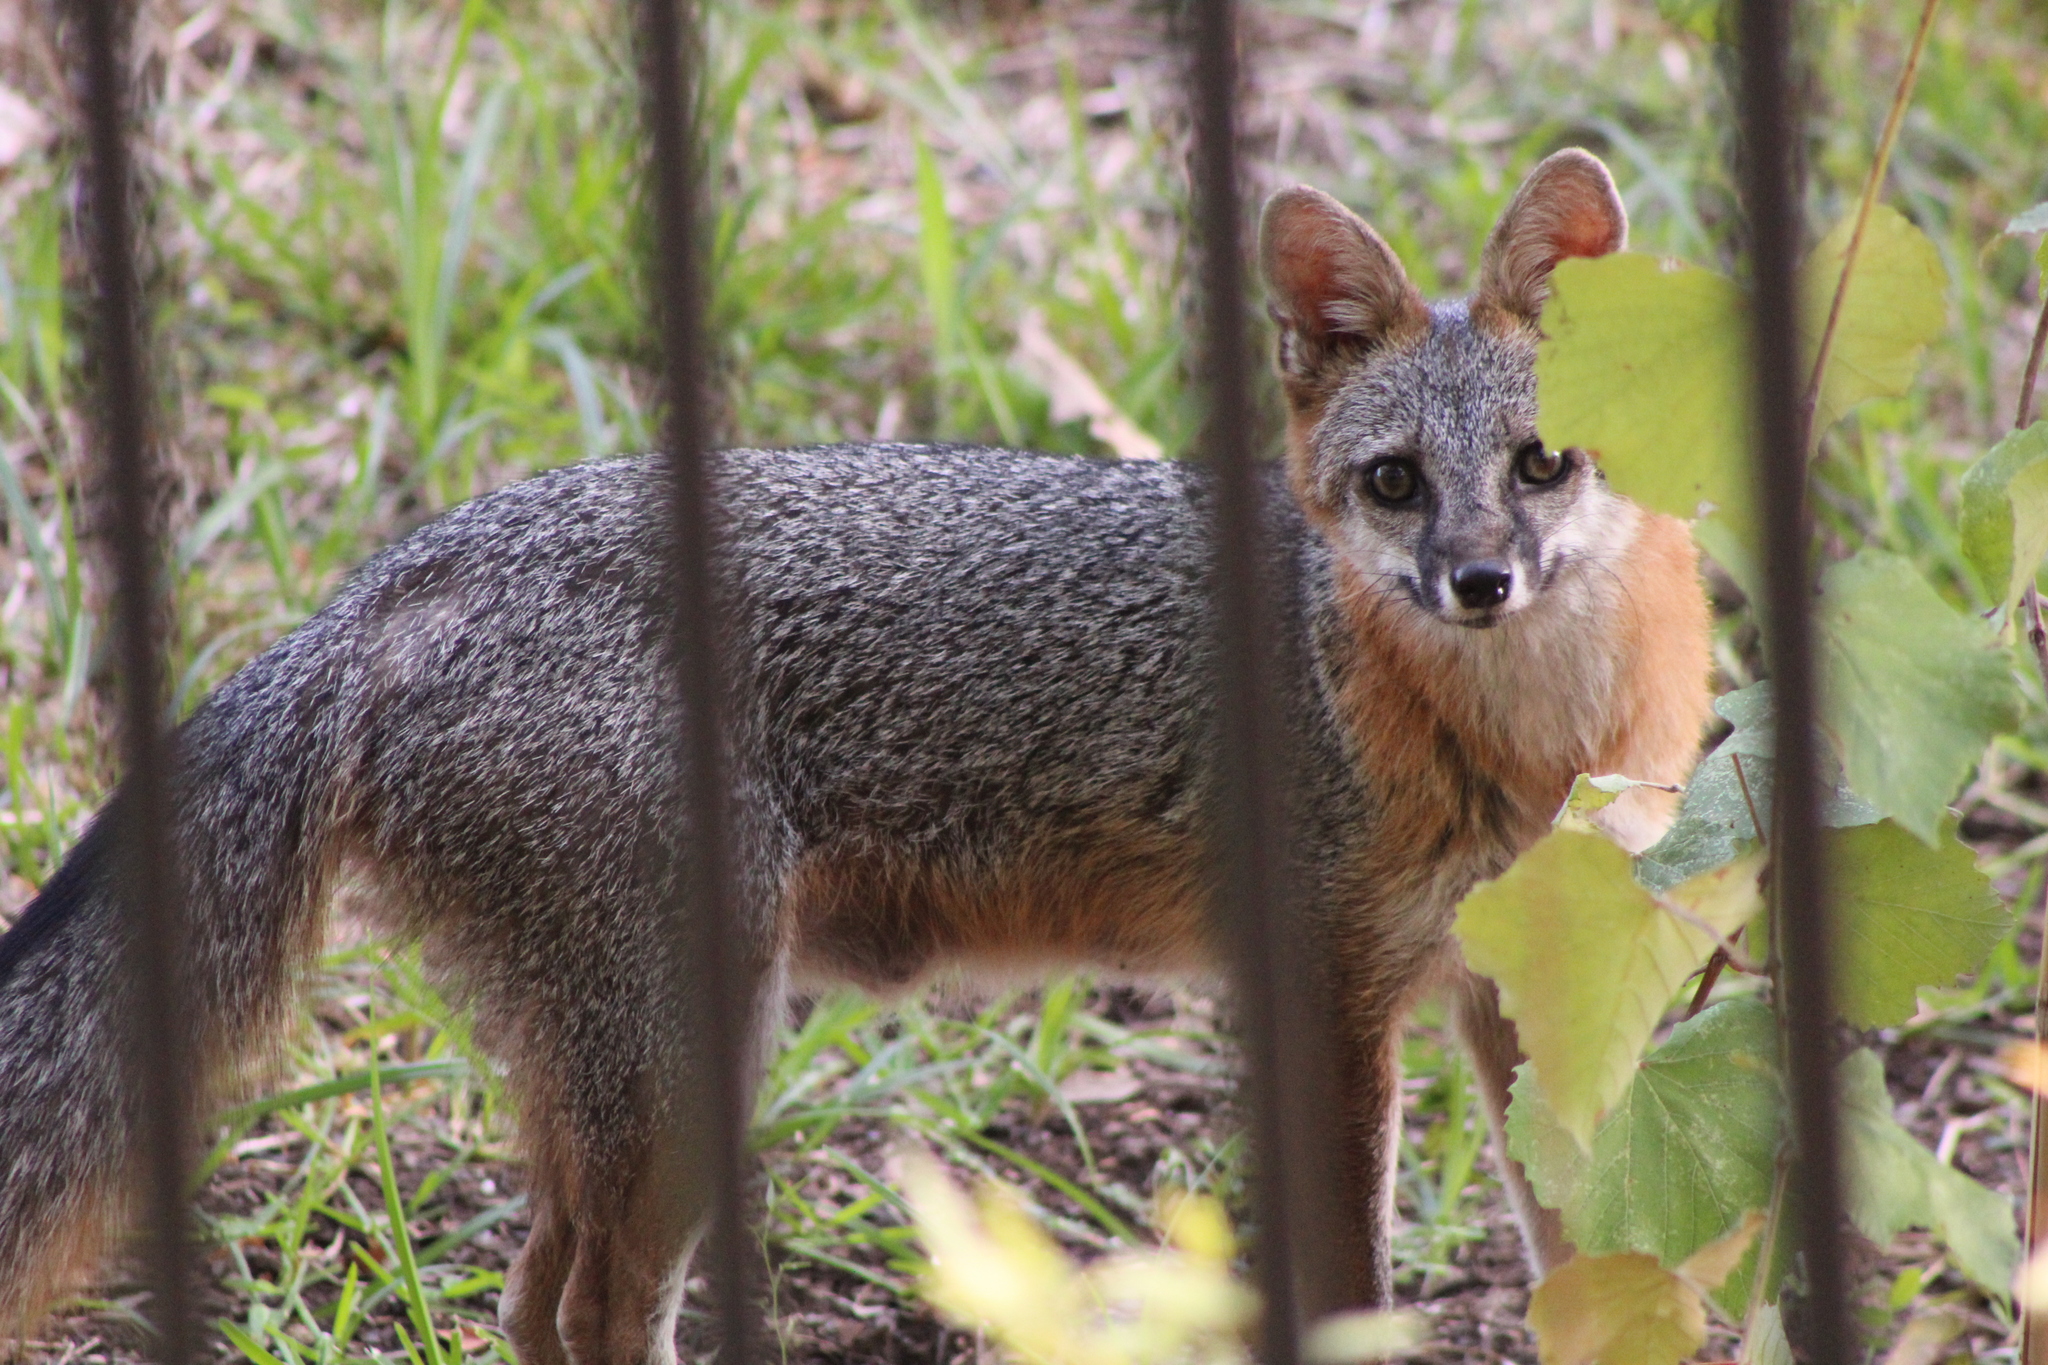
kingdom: Animalia
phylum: Chordata
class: Mammalia
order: Carnivora
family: Canidae
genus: Urocyon
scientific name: Urocyon cinereoargenteus
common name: Gray fox
